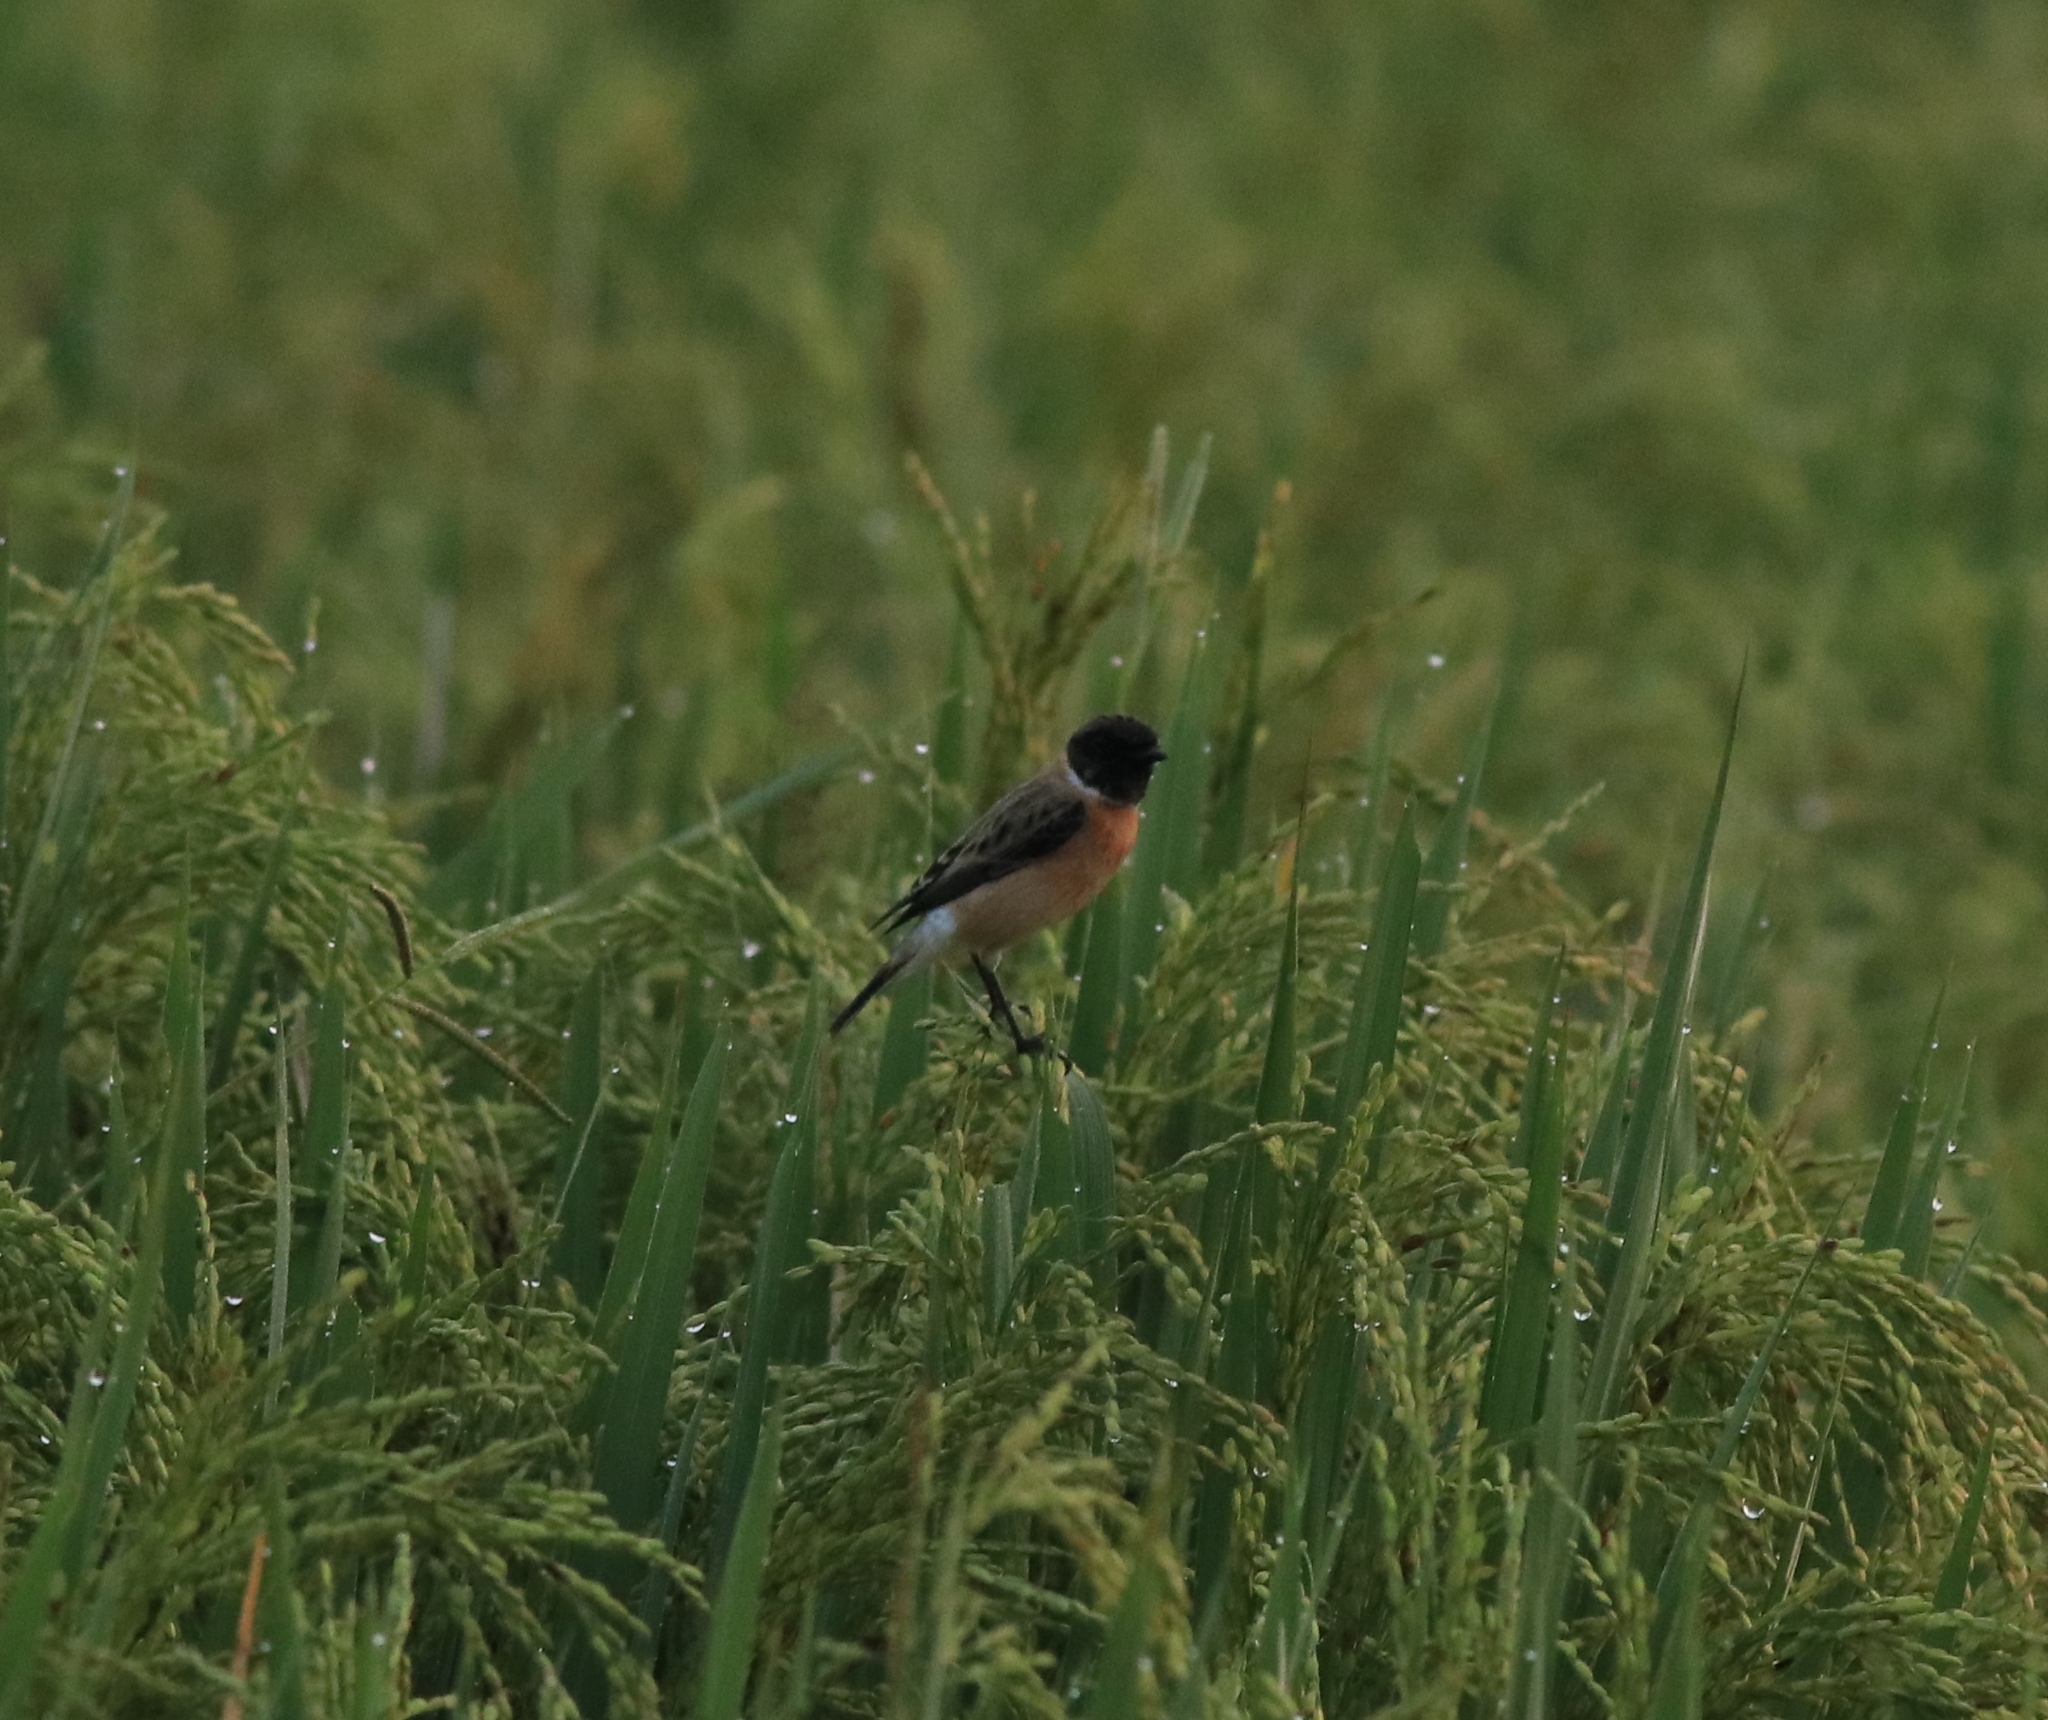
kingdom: Animalia
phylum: Chordata
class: Aves
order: Passeriformes
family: Muscicapidae
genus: Saxicola
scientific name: Saxicola maurus
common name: Siberian stonechat
